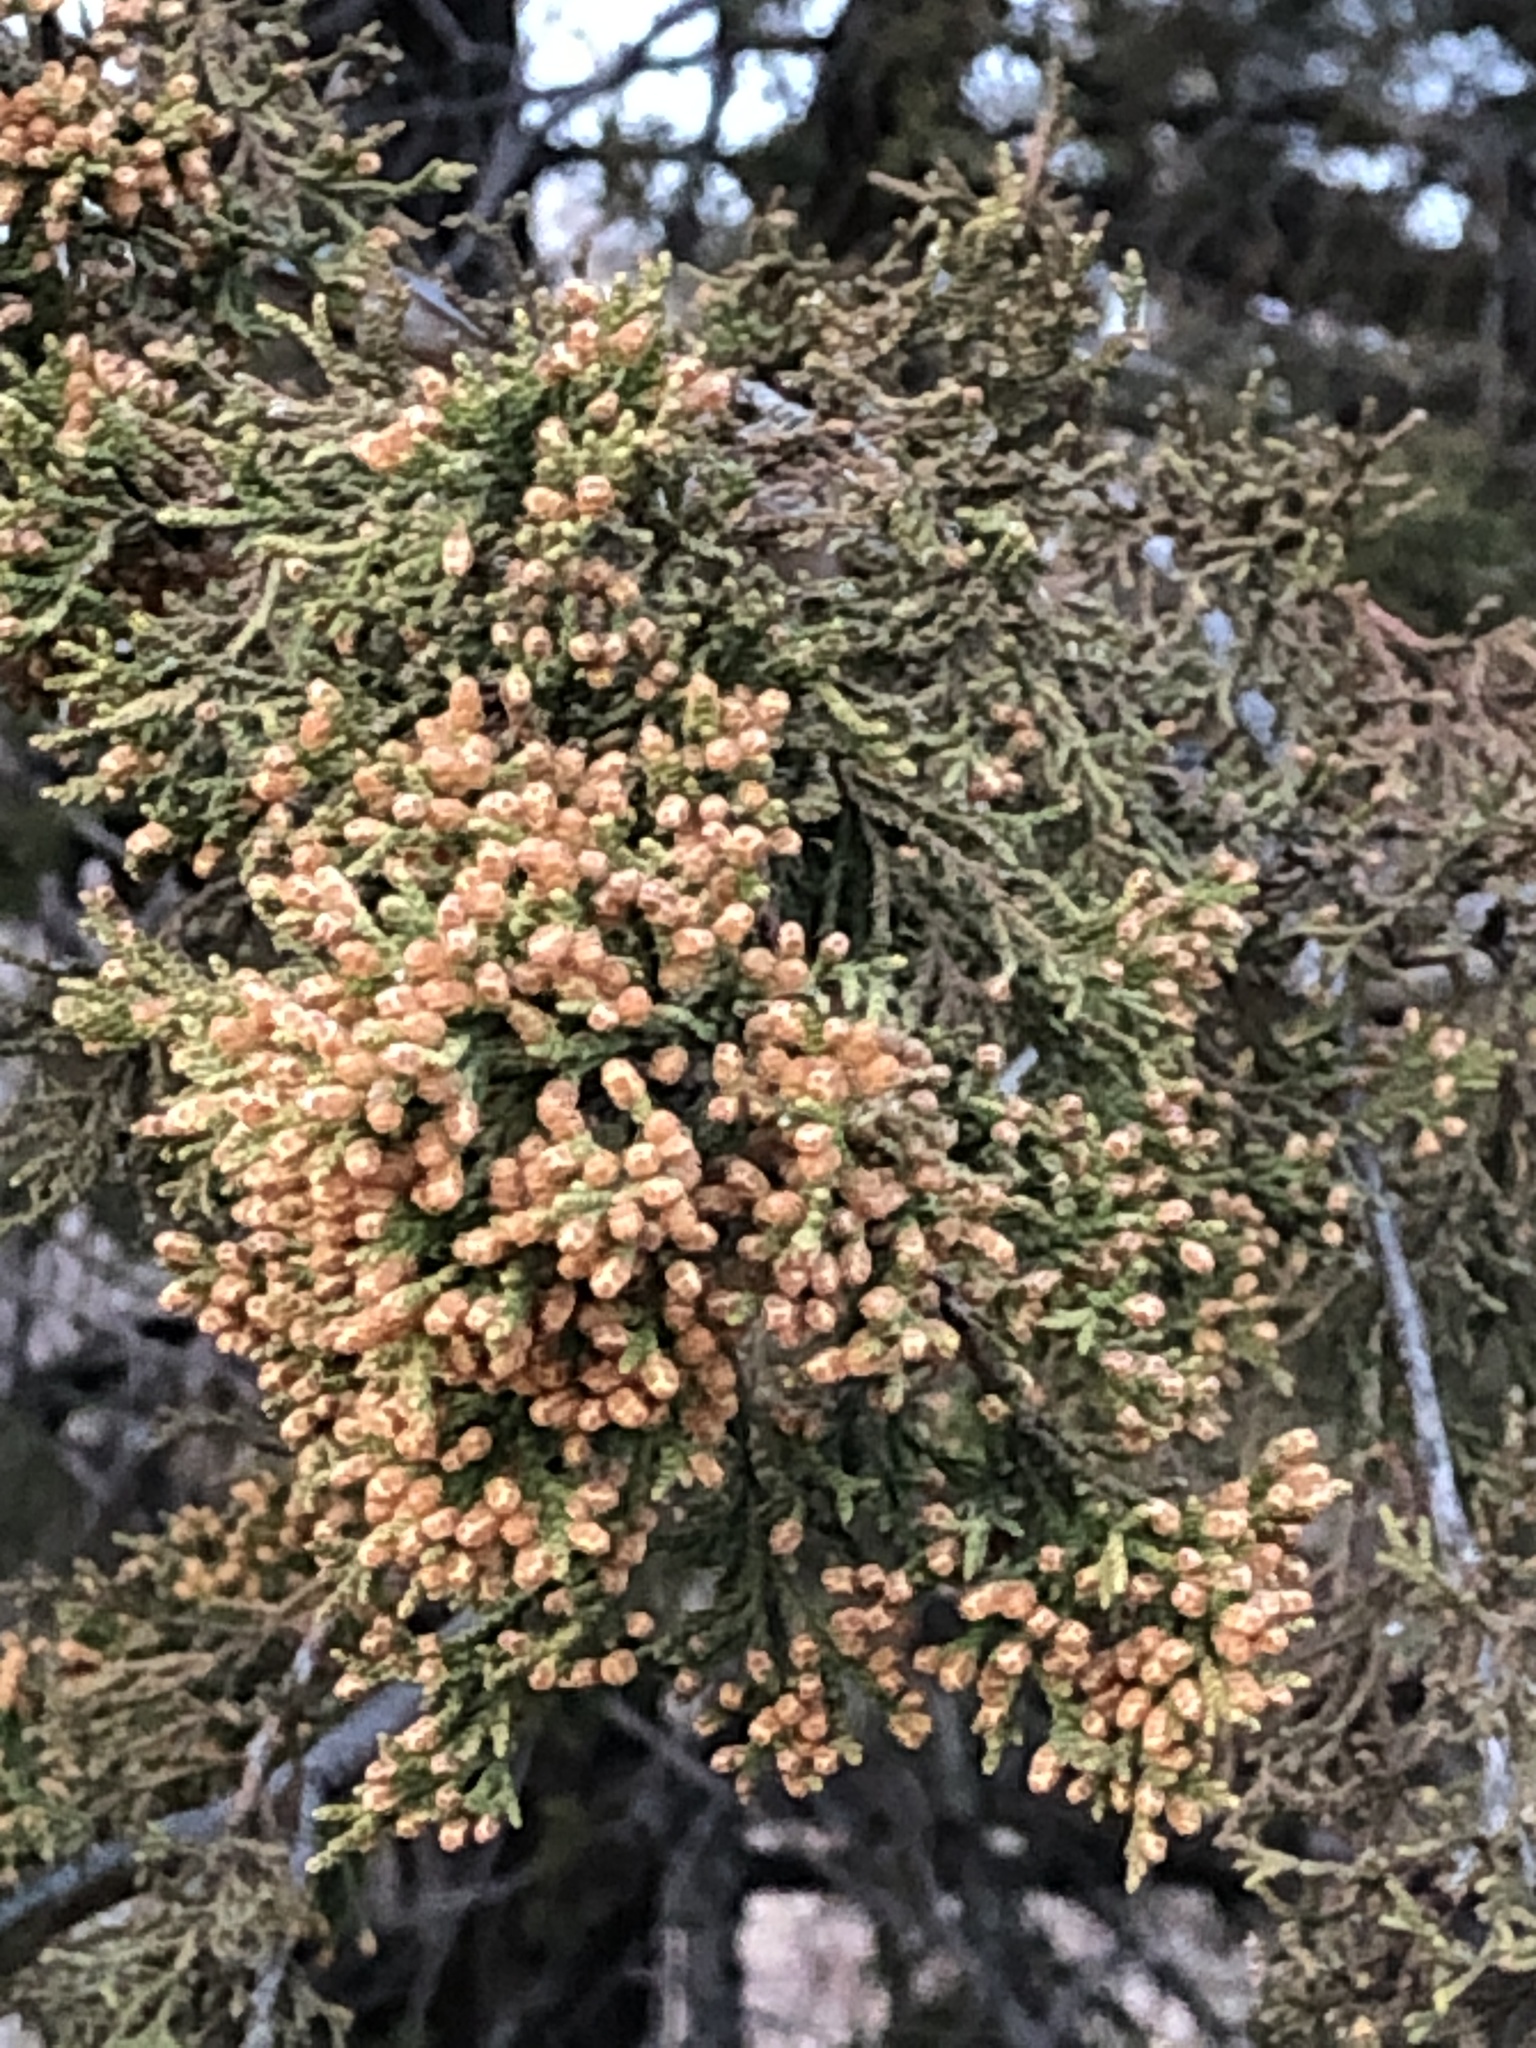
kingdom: Plantae
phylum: Tracheophyta
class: Pinopsida
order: Pinales
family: Cupressaceae
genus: Juniperus
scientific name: Juniperus virginiana
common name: Red juniper
